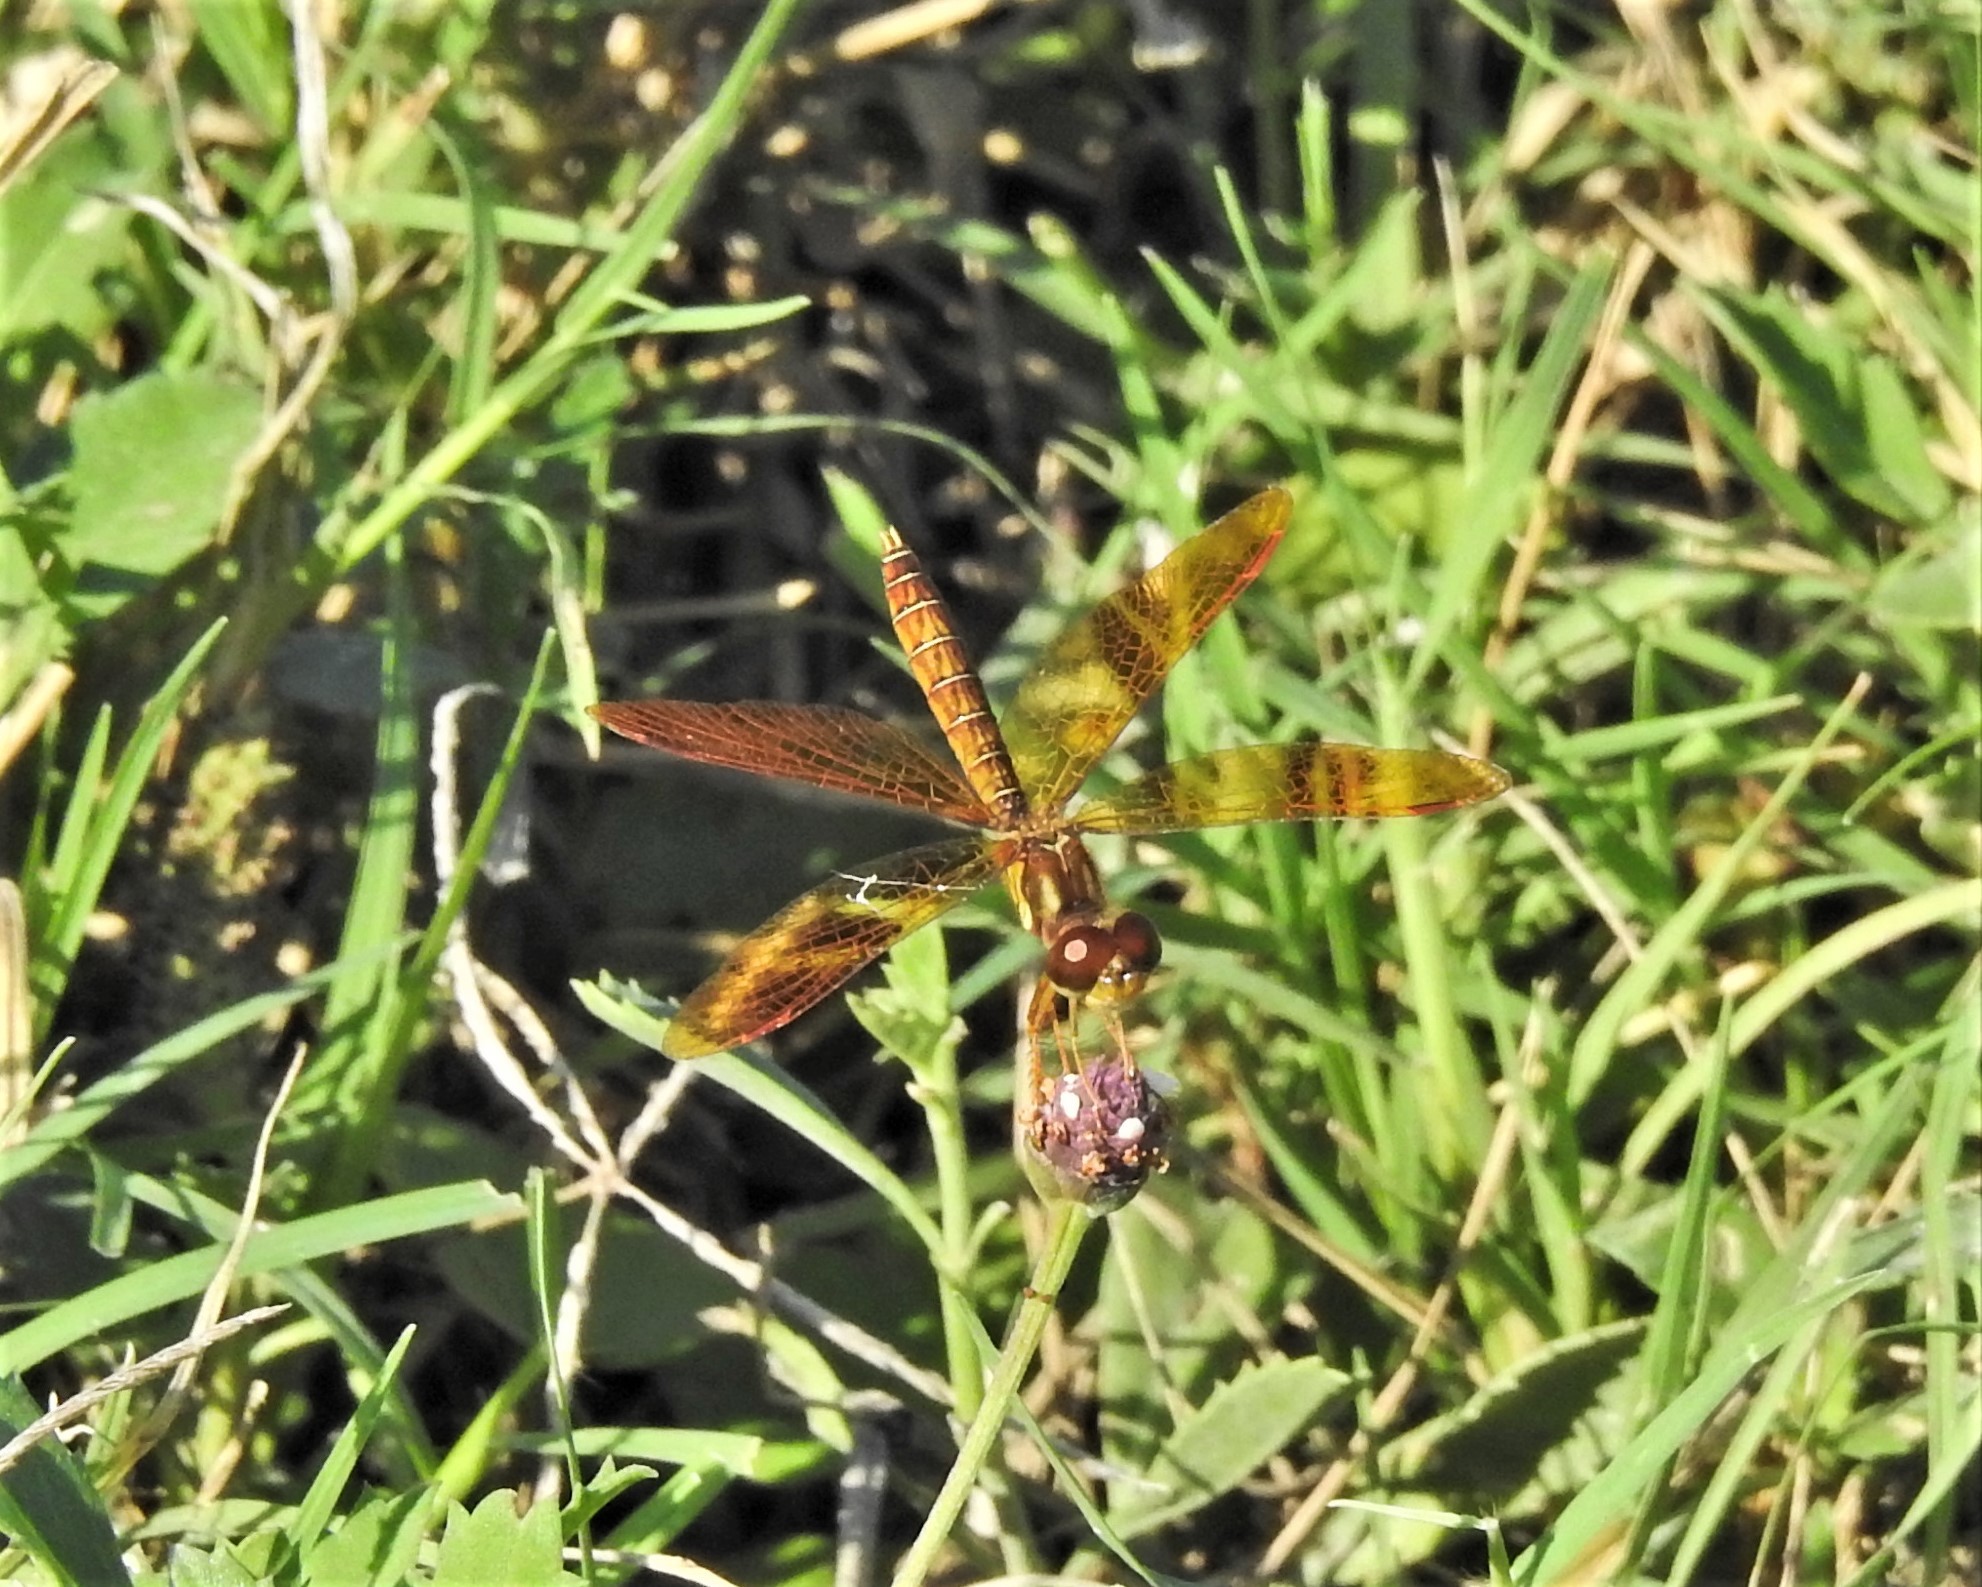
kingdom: Animalia
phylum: Arthropoda
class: Insecta
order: Odonata
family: Libellulidae
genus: Perithemis
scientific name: Perithemis tenera
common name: Eastern amberwing
